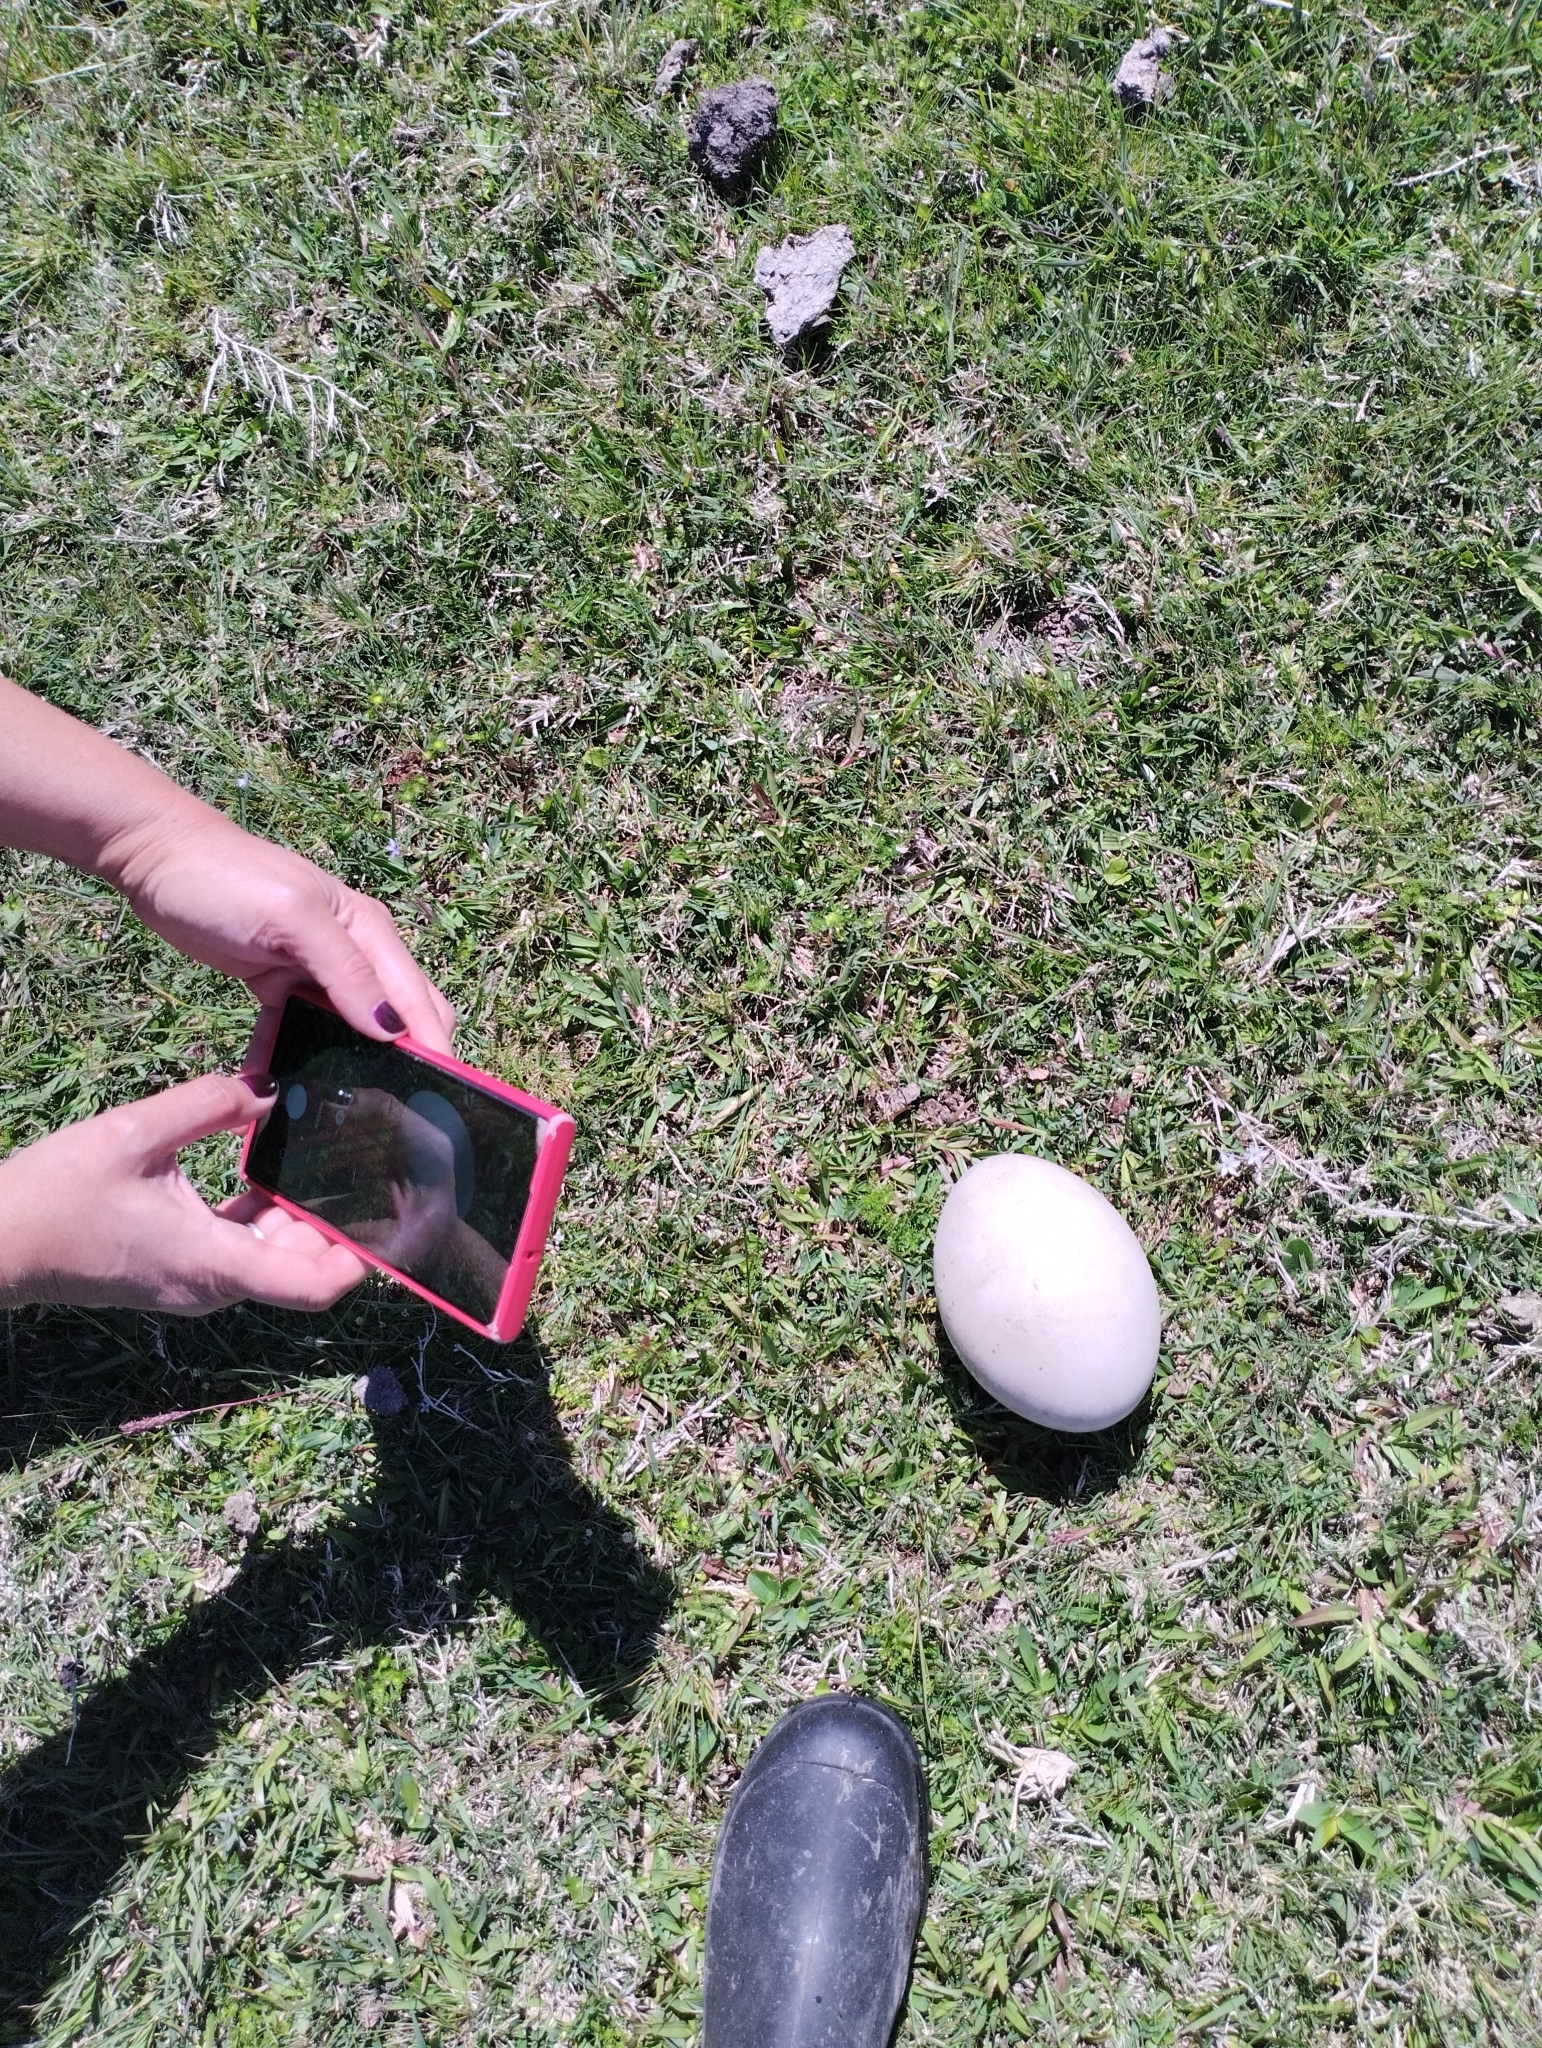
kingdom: Animalia
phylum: Chordata
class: Aves
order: Rheiformes
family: Rheidae
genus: Rhea
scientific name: Rhea americana
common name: Greater rhea
